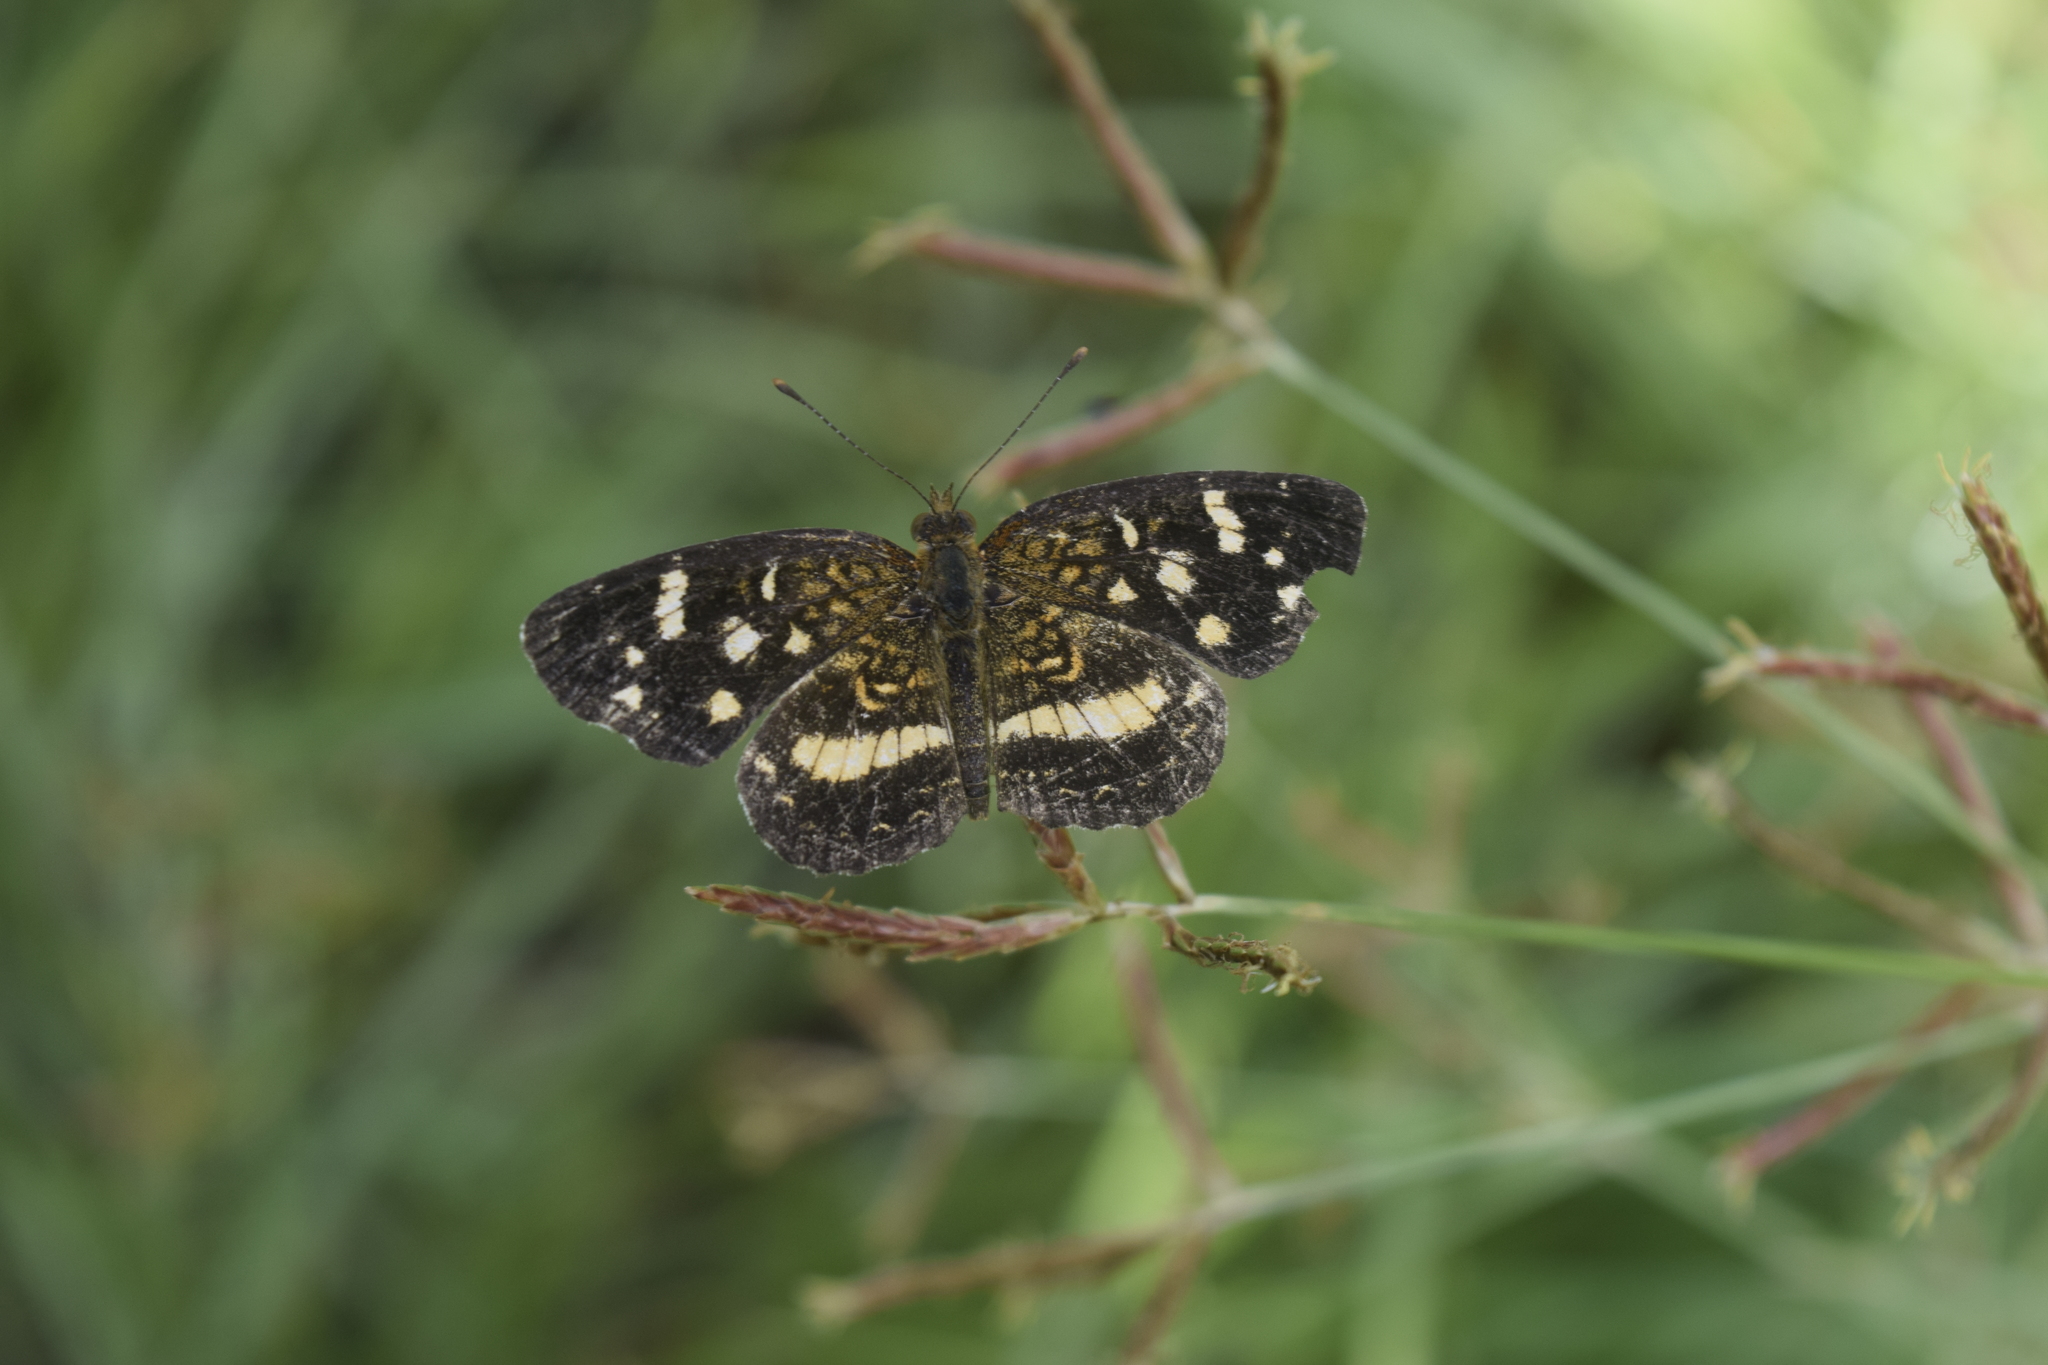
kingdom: Animalia
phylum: Arthropoda
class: Insecta
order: Lepidoptera
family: Nymphalidae
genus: Anthanassa
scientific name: Anthanassa tulcis
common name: Pale-banded crescent
